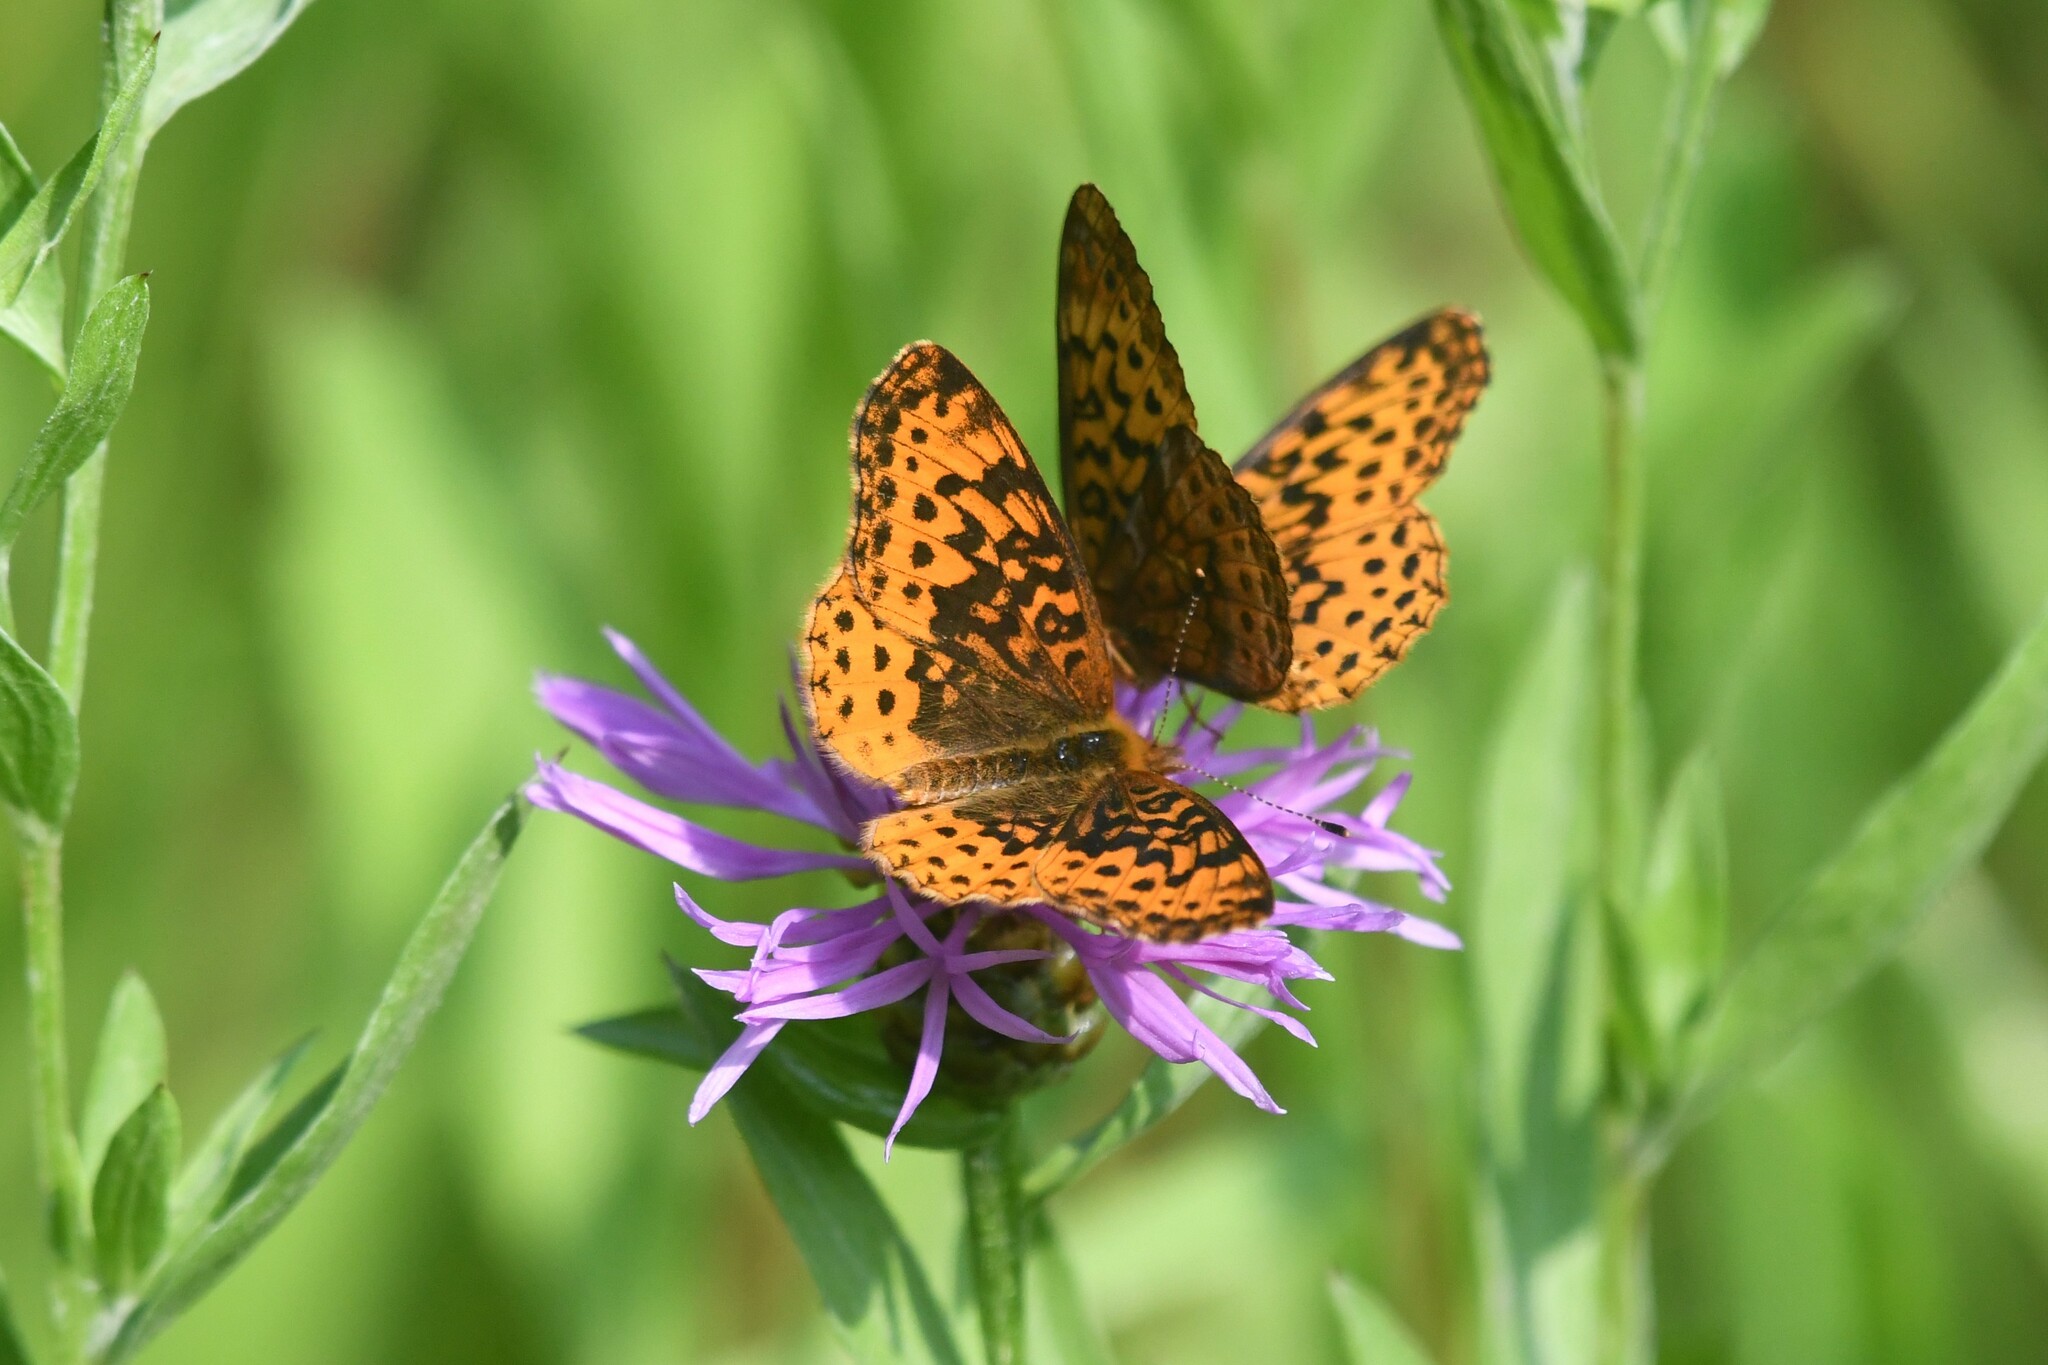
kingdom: Animalia
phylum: Arthropoda
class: Insecta
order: Lepidoptera
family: Nymphalidae
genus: Clossiana
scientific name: Clossiana toddi
